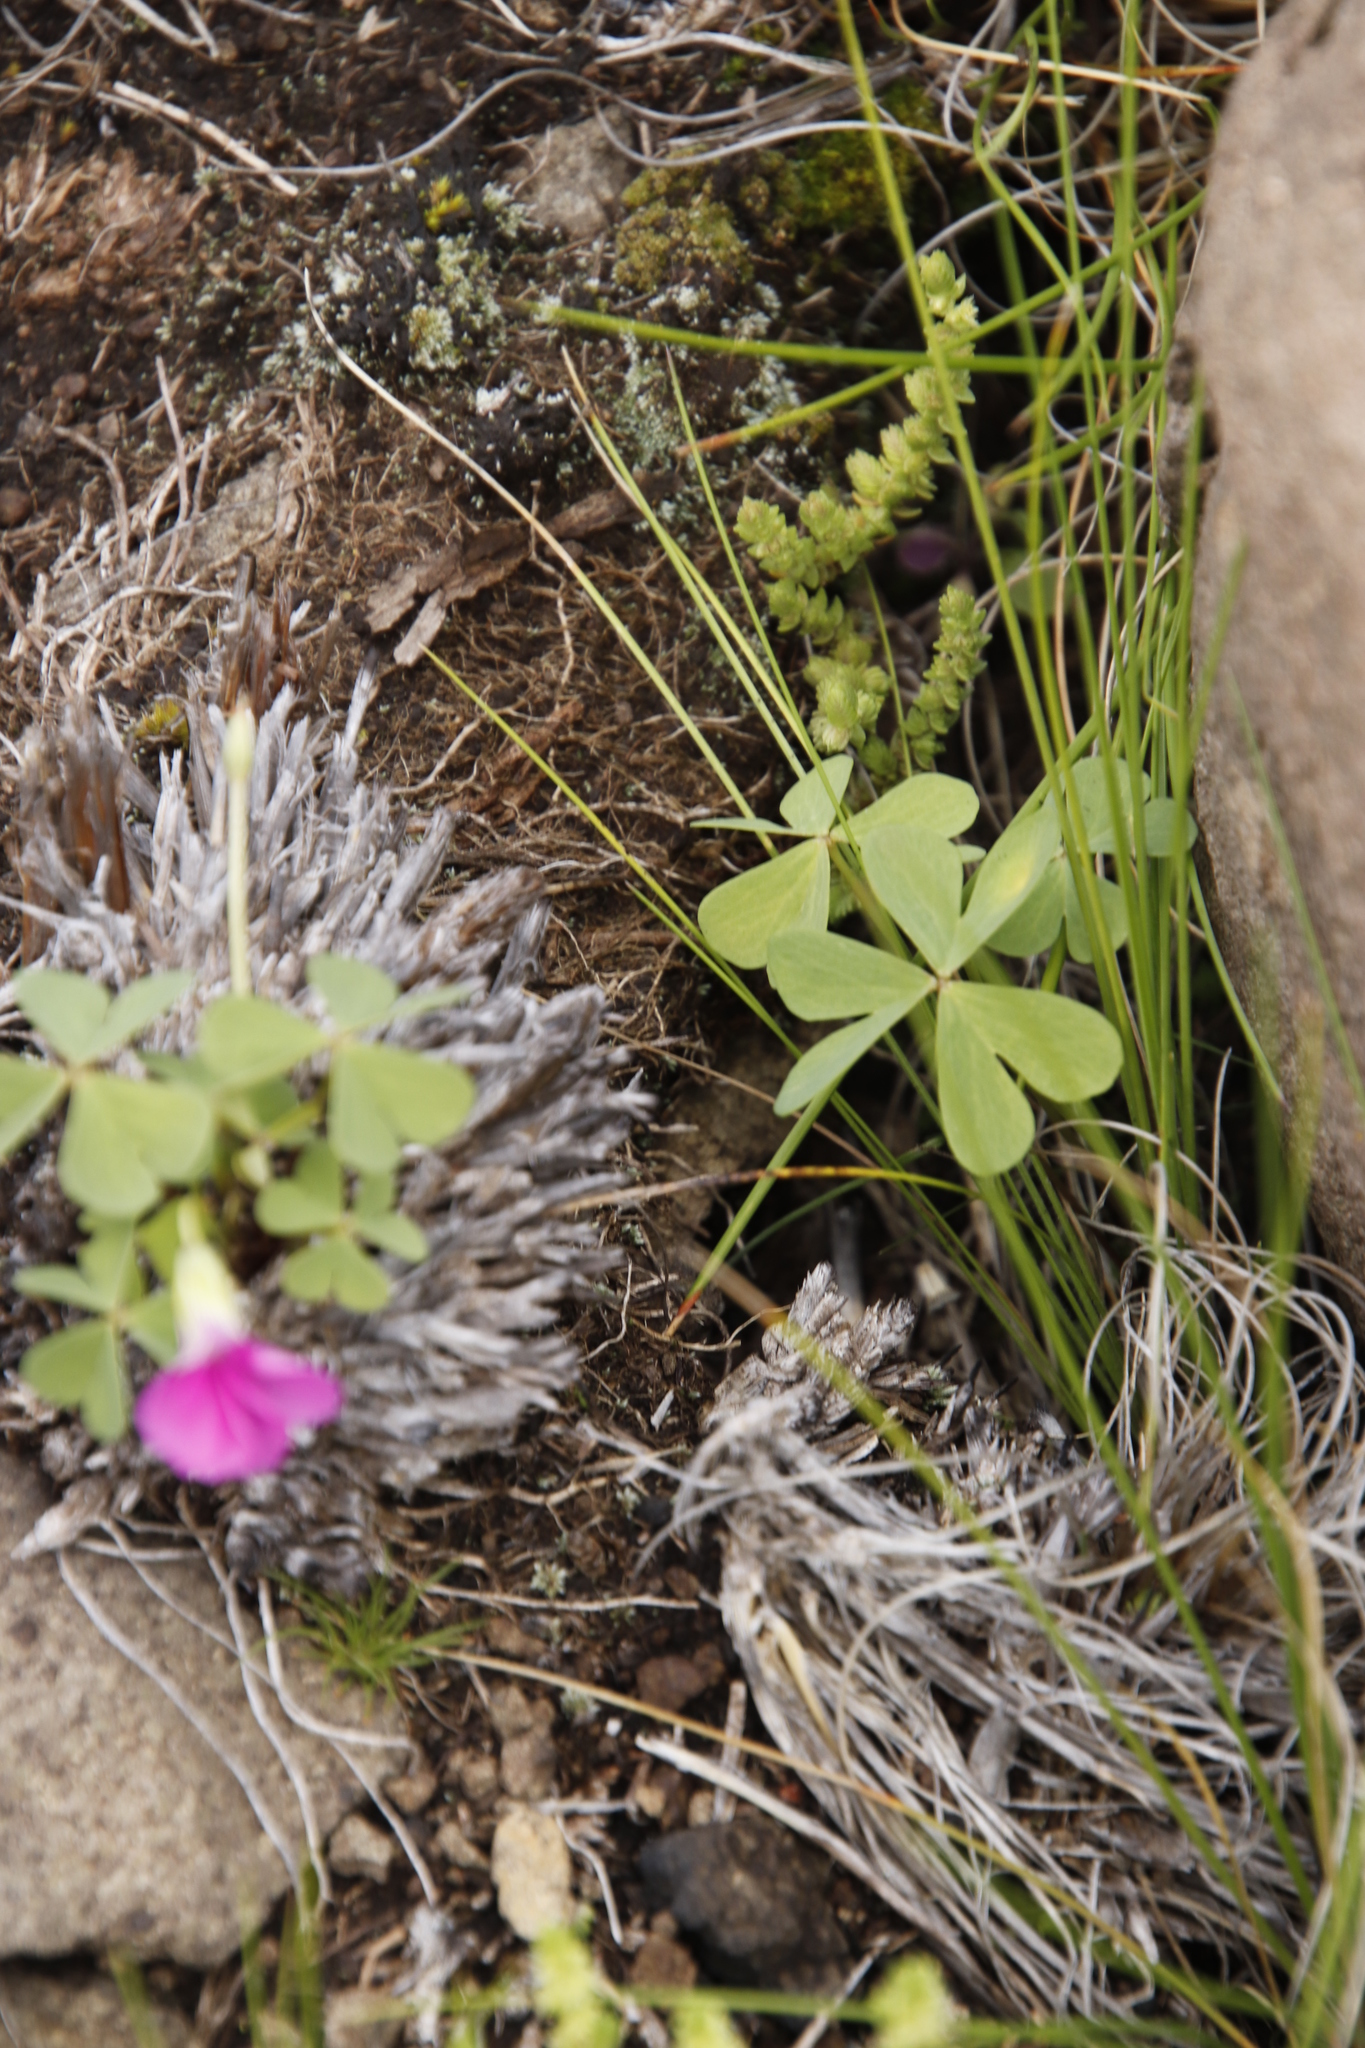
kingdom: Plantae
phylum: Tracheophyta
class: Magnoliopsida
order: Oxalidales
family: Oxalidaceae
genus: Oxalis
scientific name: Oxalis smithiana
